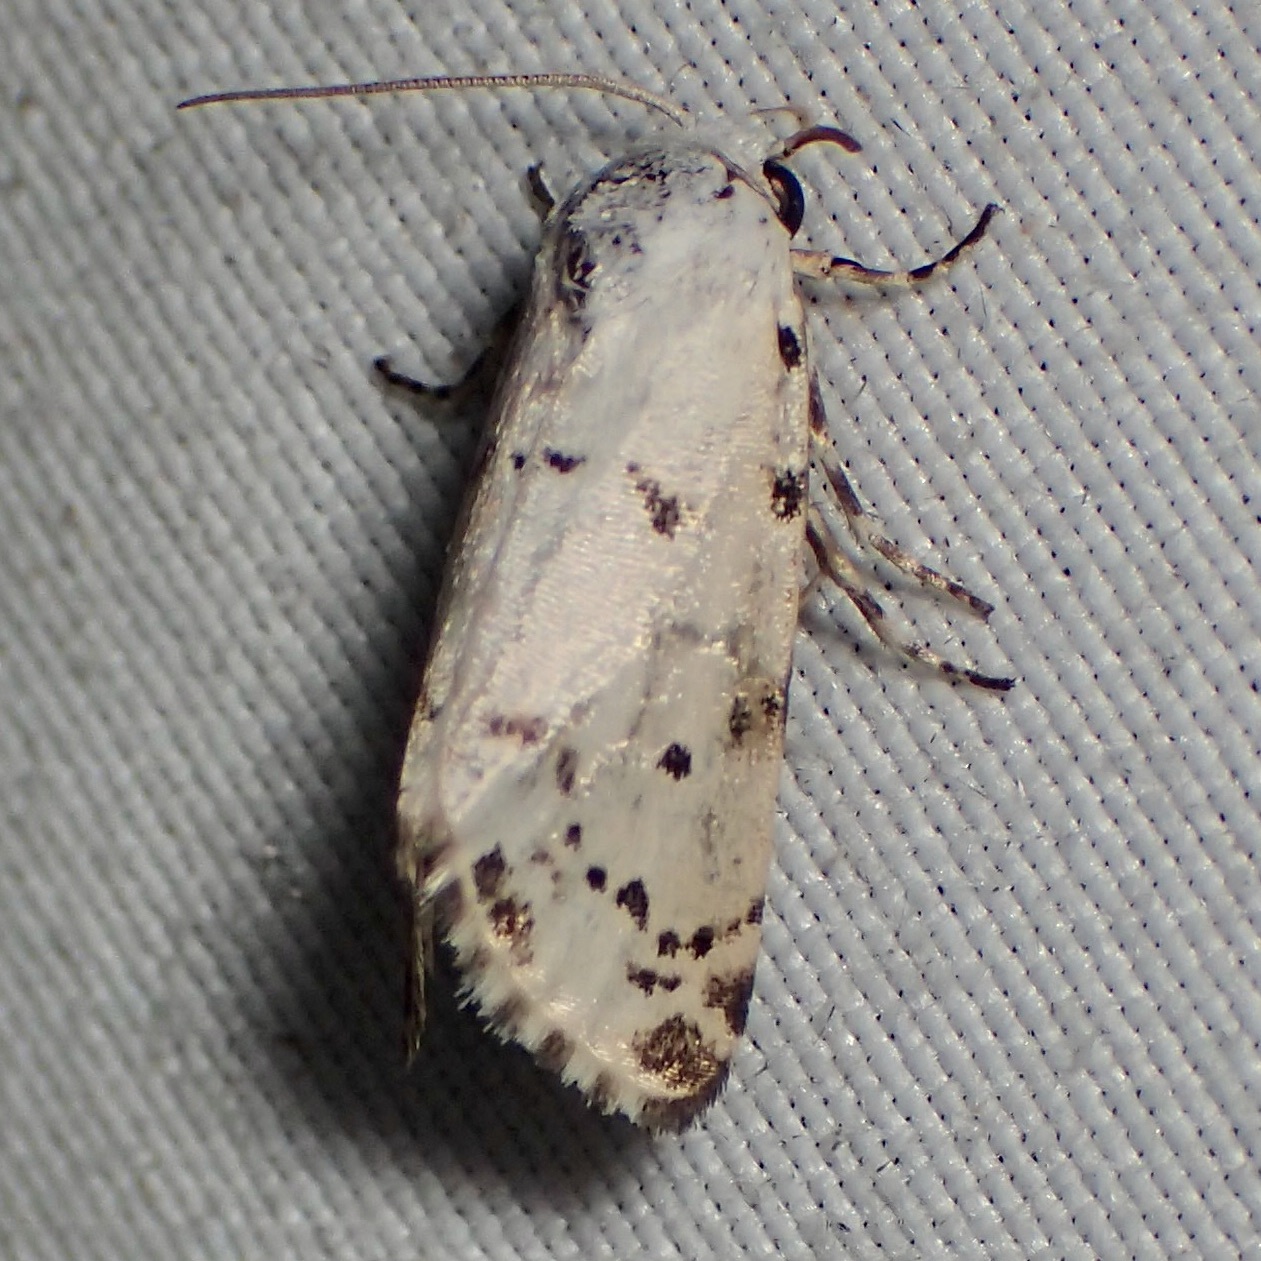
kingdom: Animalia
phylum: Arthropoda
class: Insecta
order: Lepidoptera
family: Noctuidae
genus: Grotella
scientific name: Grotella soror
